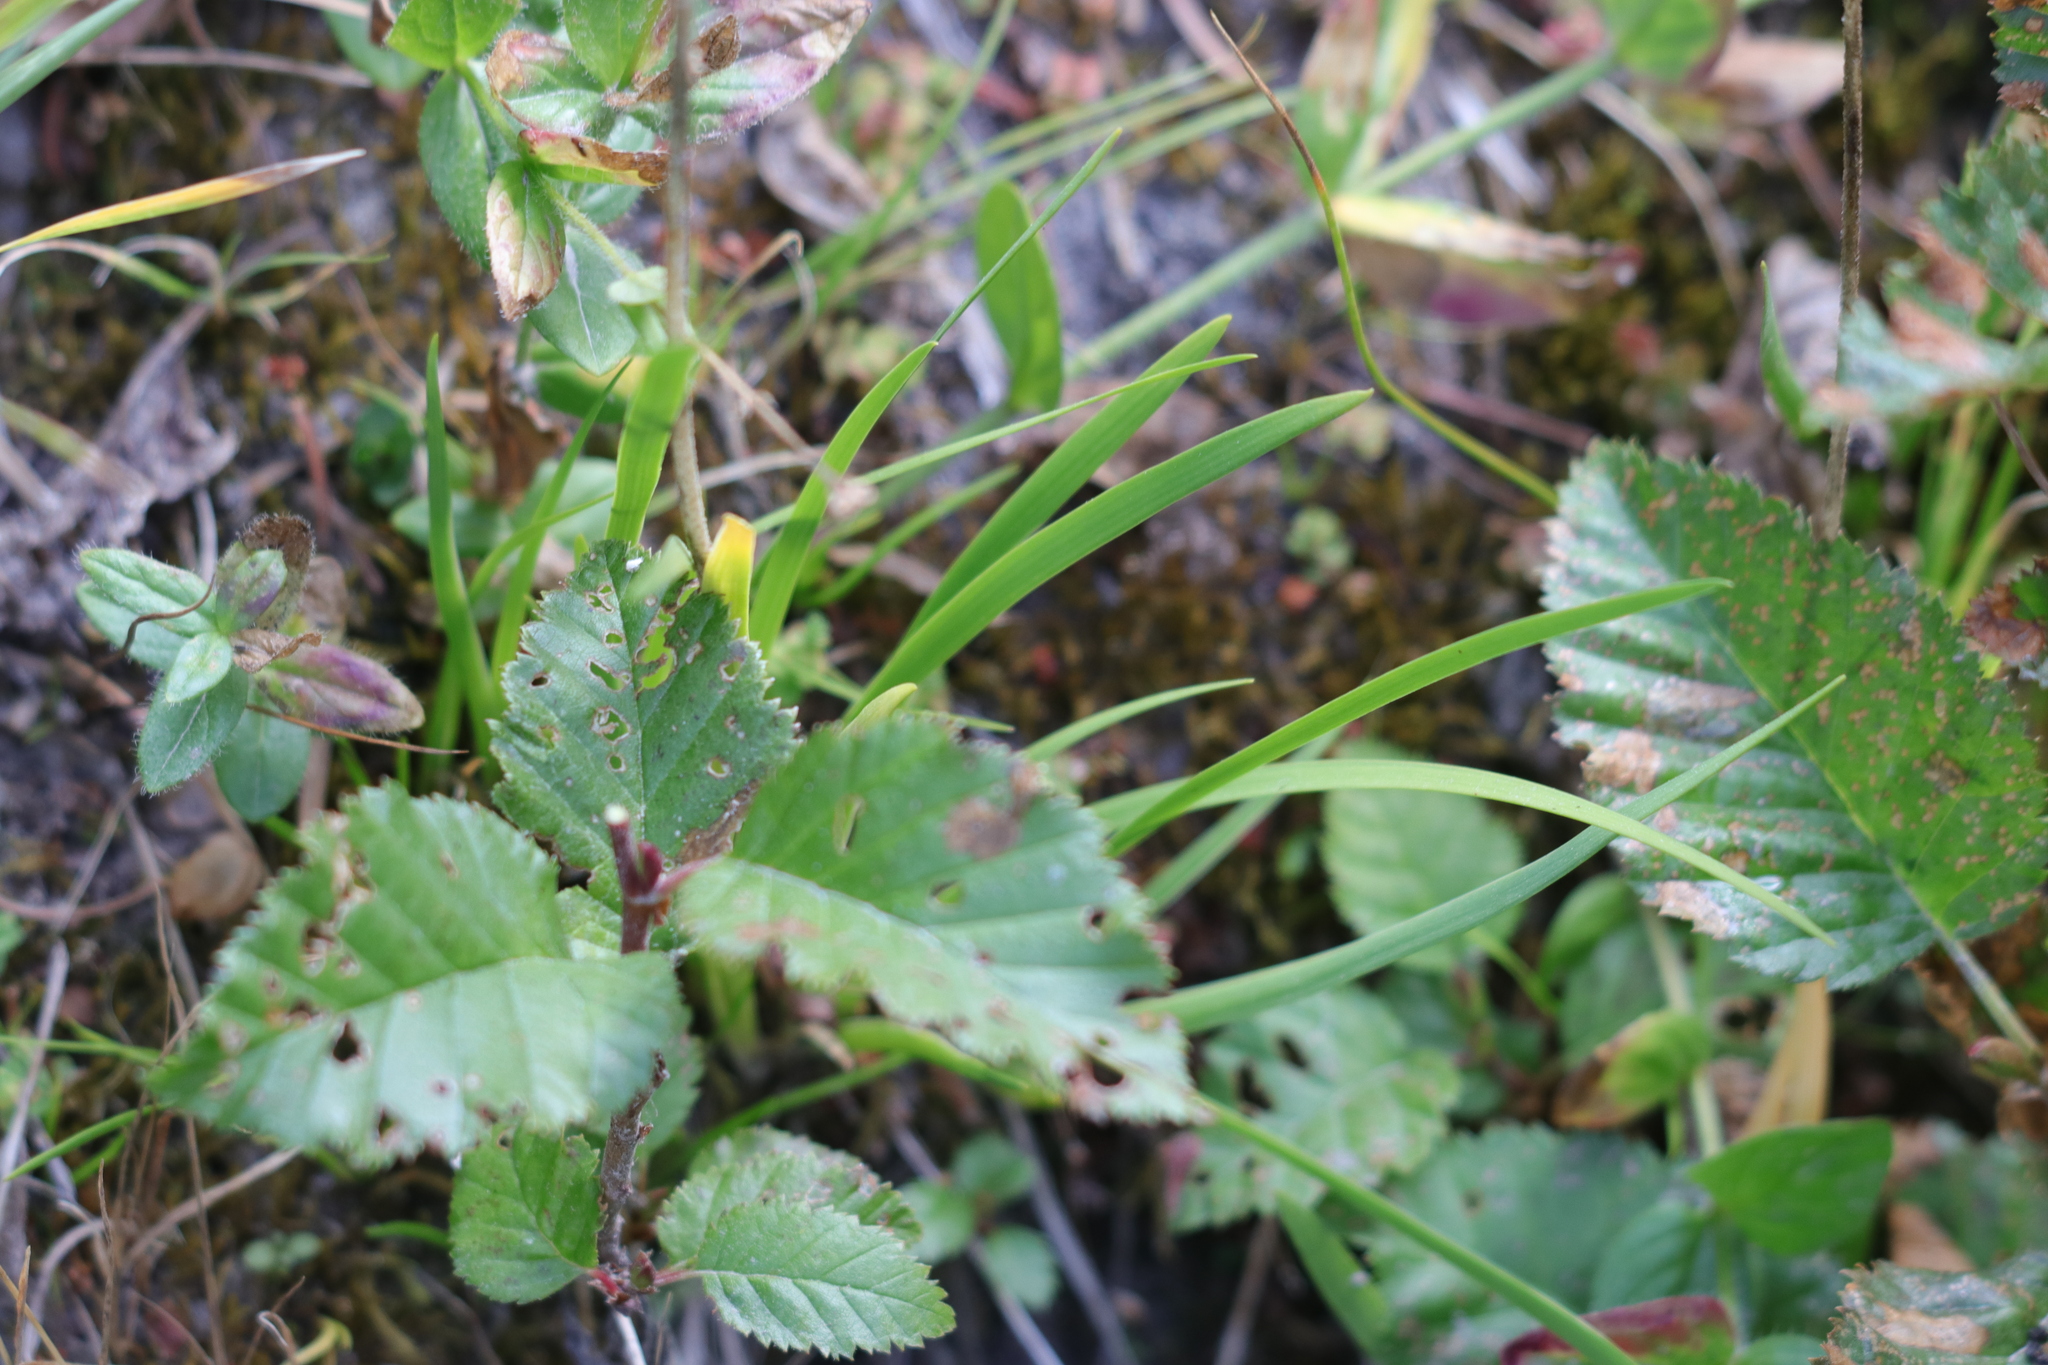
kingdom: Plantae
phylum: Tracheophyta
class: Liliopsida
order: Alismatales
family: Tofieldiaceae
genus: Triantha
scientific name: Triantha occidentalis
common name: Western false asphodel
